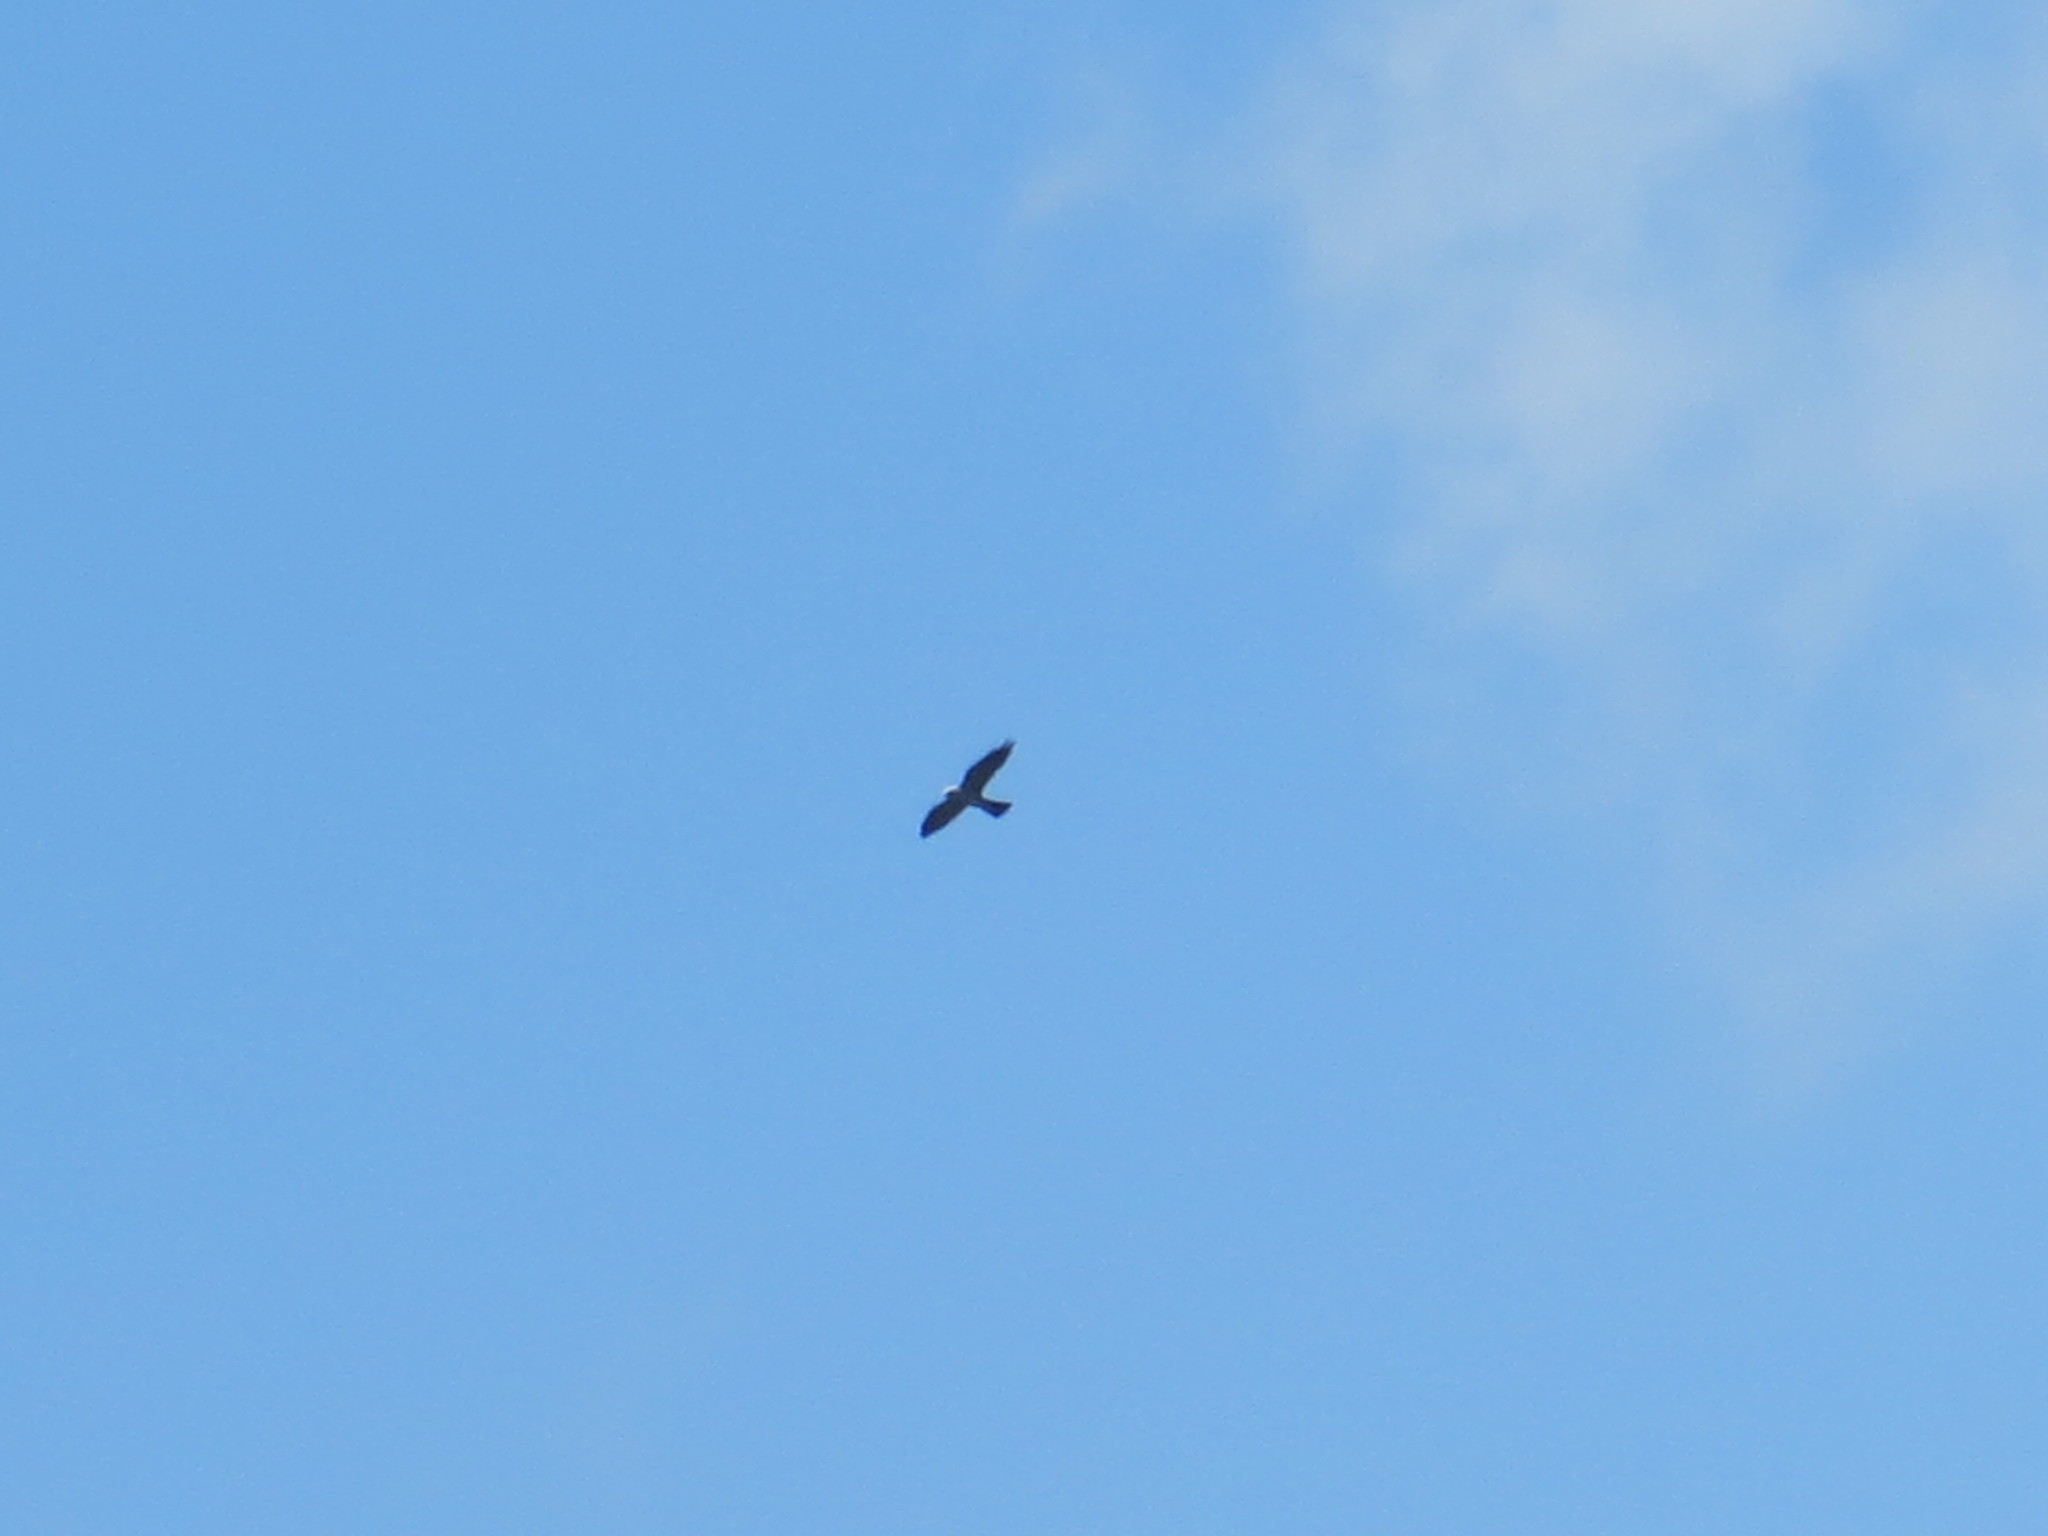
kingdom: Animalia
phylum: Chordata
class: Aves
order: Accipitriformes
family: Accipitridae
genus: Ictinia
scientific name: Ictinia mississippiensis
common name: Mississippi kite
